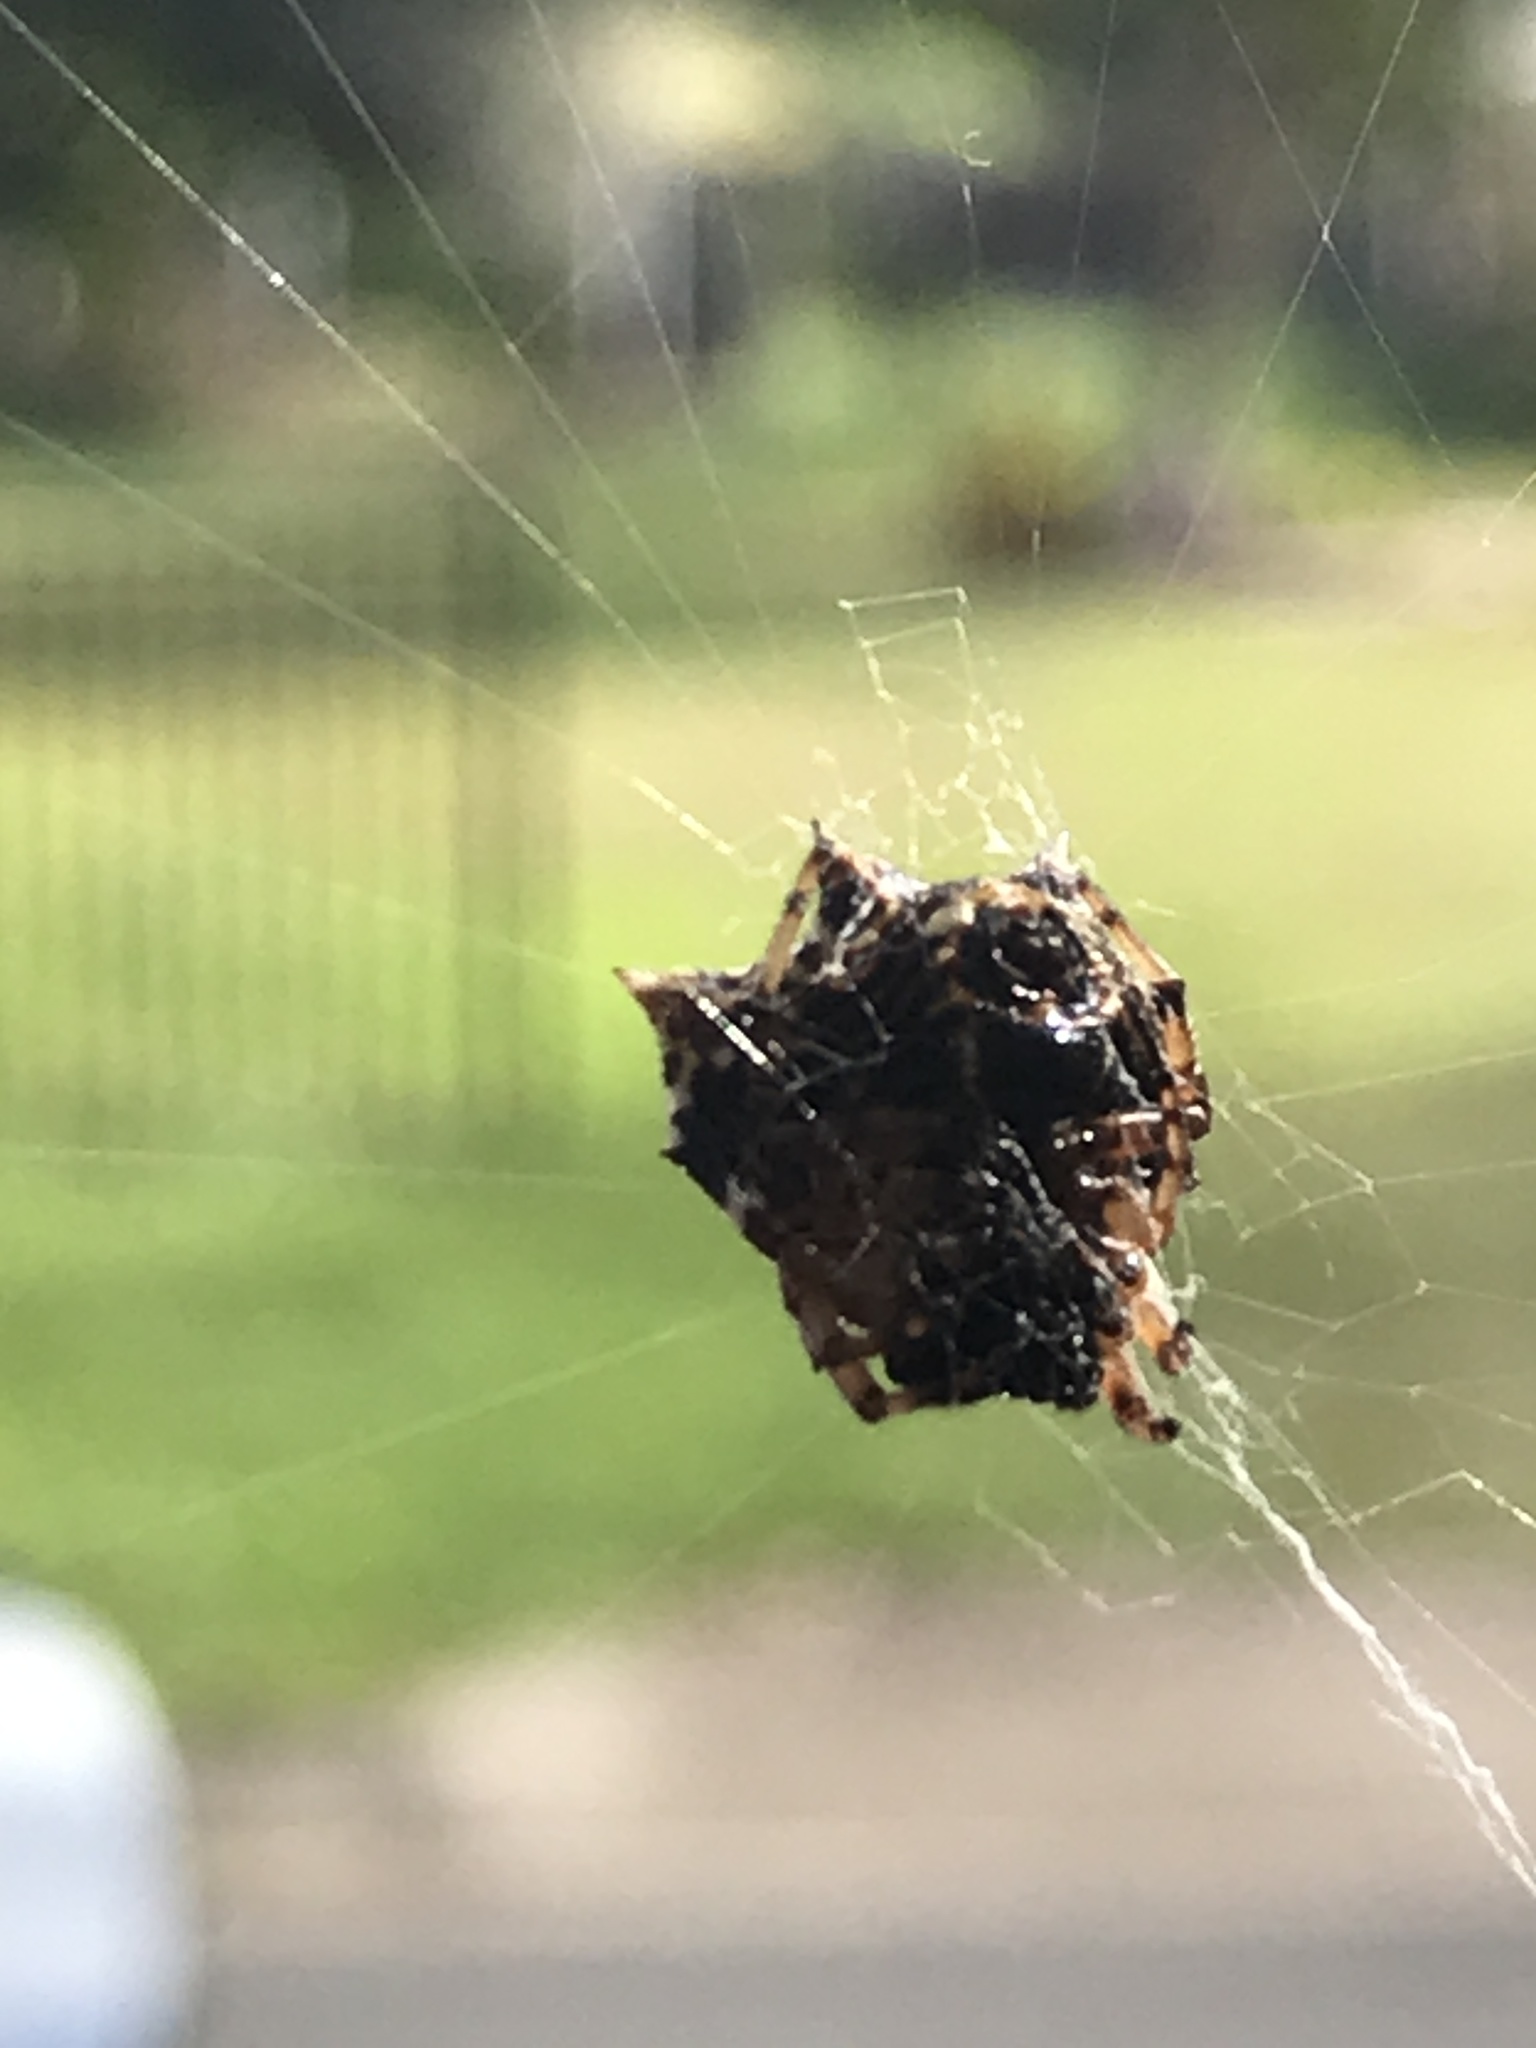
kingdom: Animalia
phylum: Arthropoda
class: Arachnida
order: Araneae
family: Araneidae
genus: Gasteracantha
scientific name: Gasteracantha sacerdotalis
